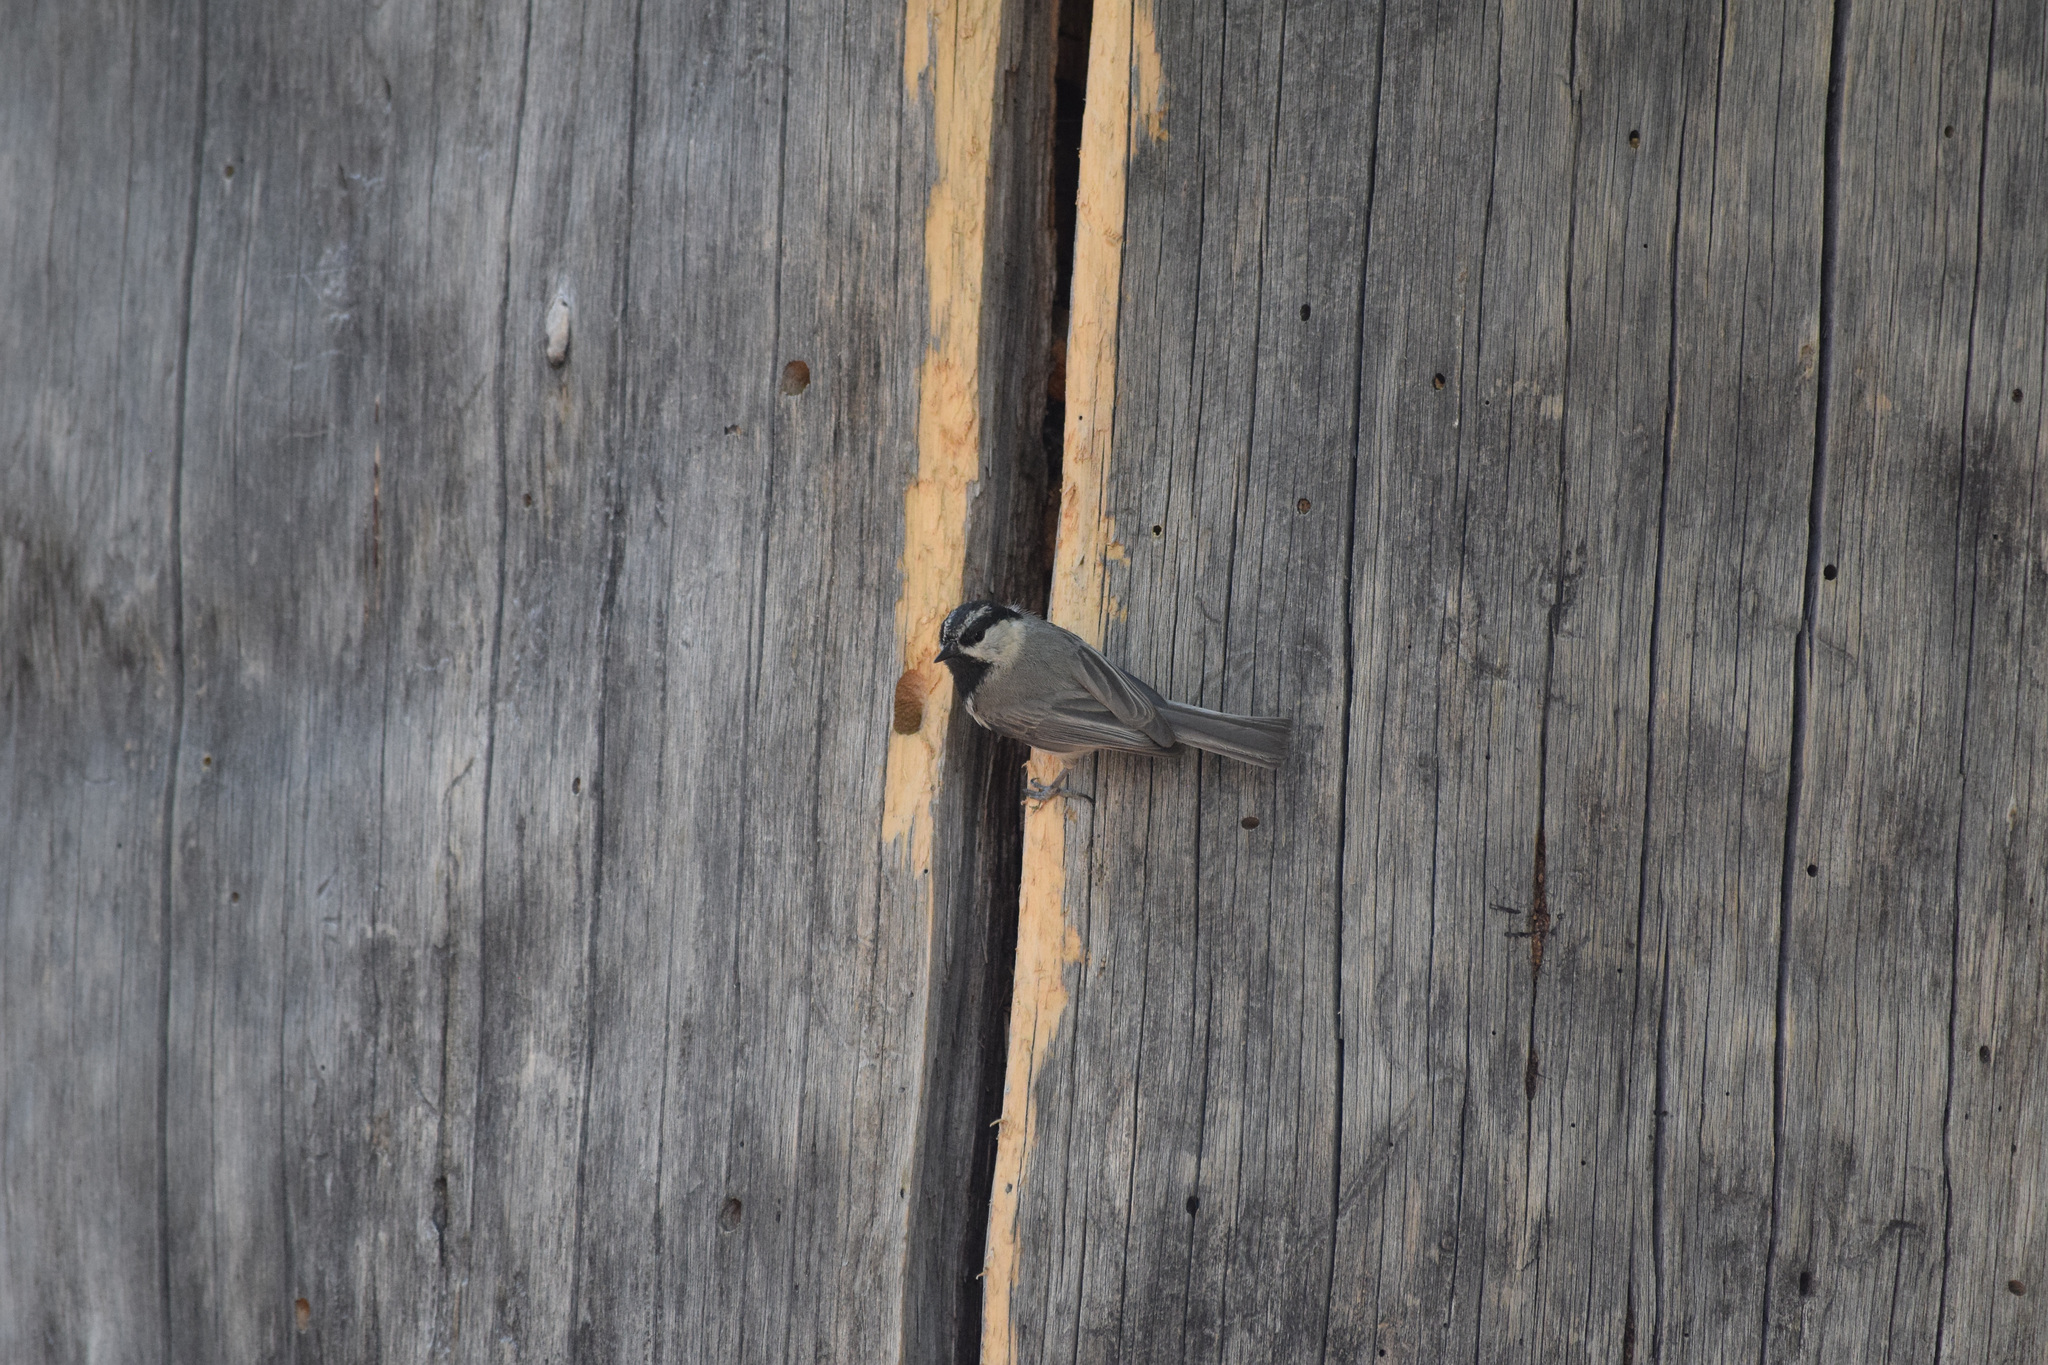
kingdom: Animalia
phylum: Chordata
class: Aves
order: Passeriformes
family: Paridae
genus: Poecile
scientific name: Poecile gambeli
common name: Mountain chickadee
